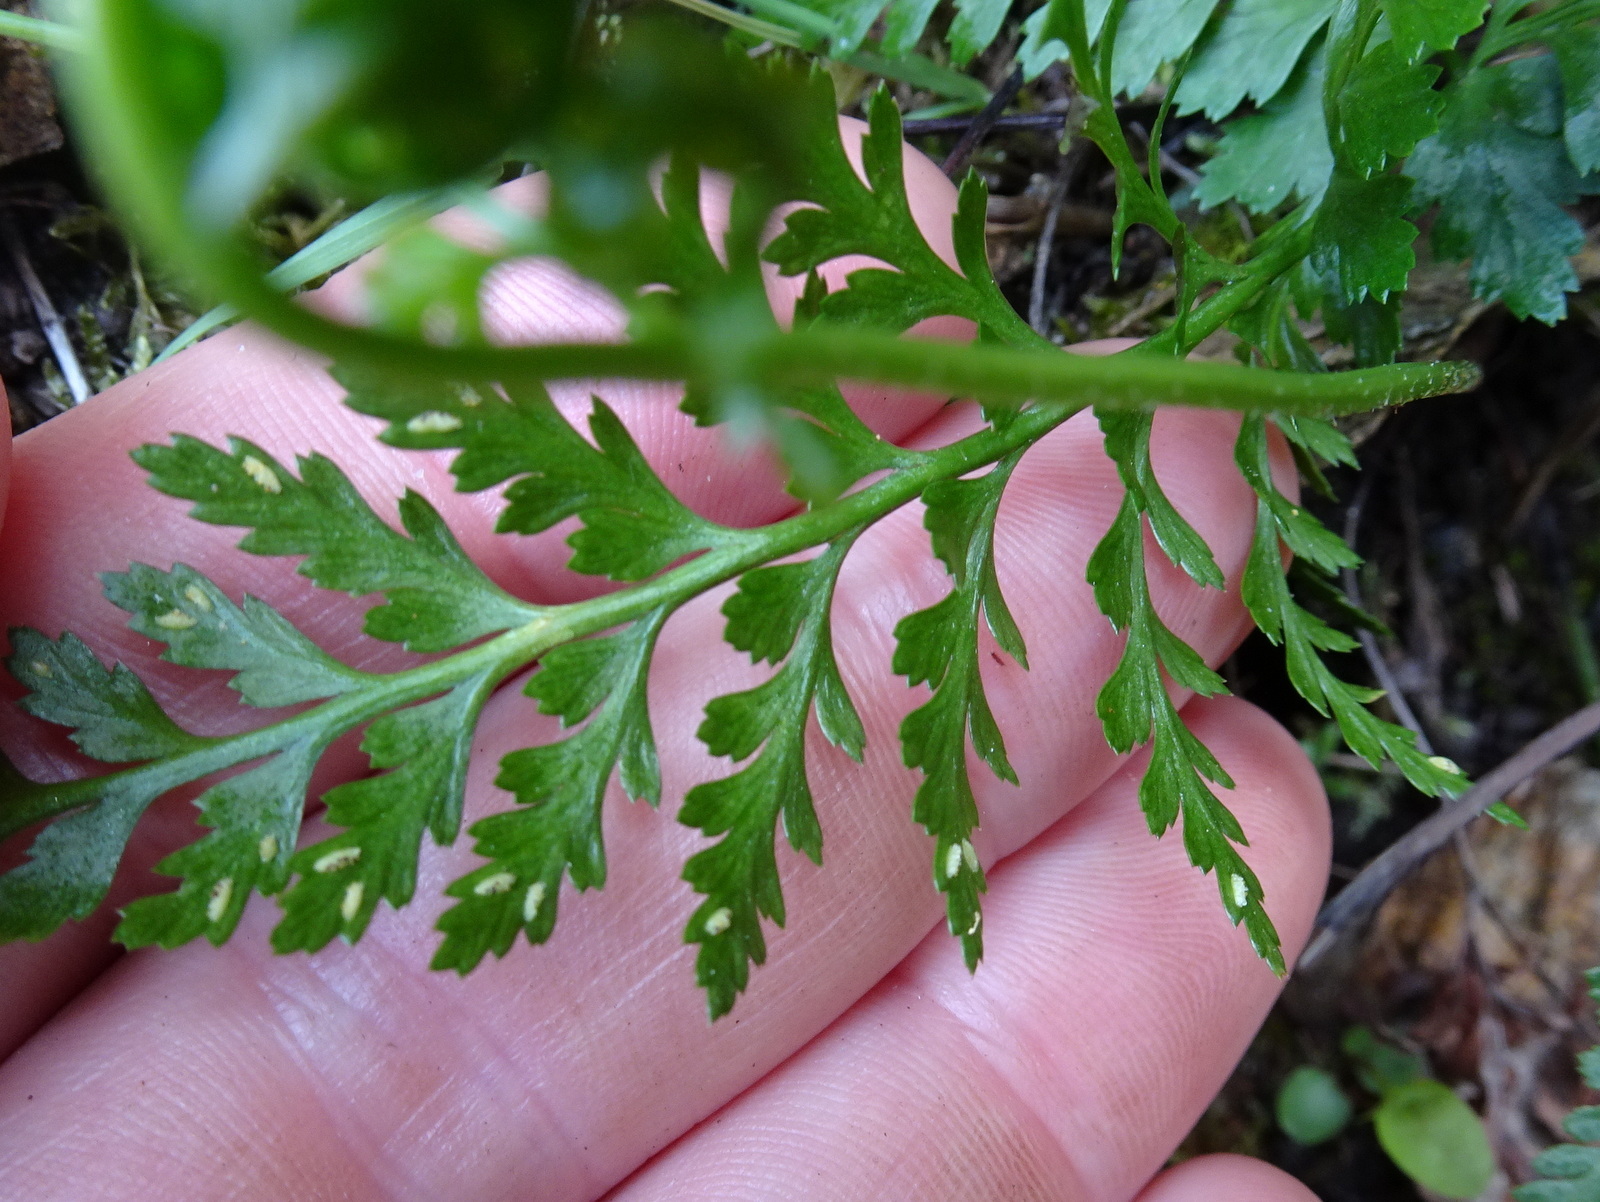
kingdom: Plantae
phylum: Tracheophyta
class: Polypodiopsida
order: Polypodiales
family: Aspleniaceae
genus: Asplenium
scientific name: Asplenium adiantum-nigrum
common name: Black spleenwort
